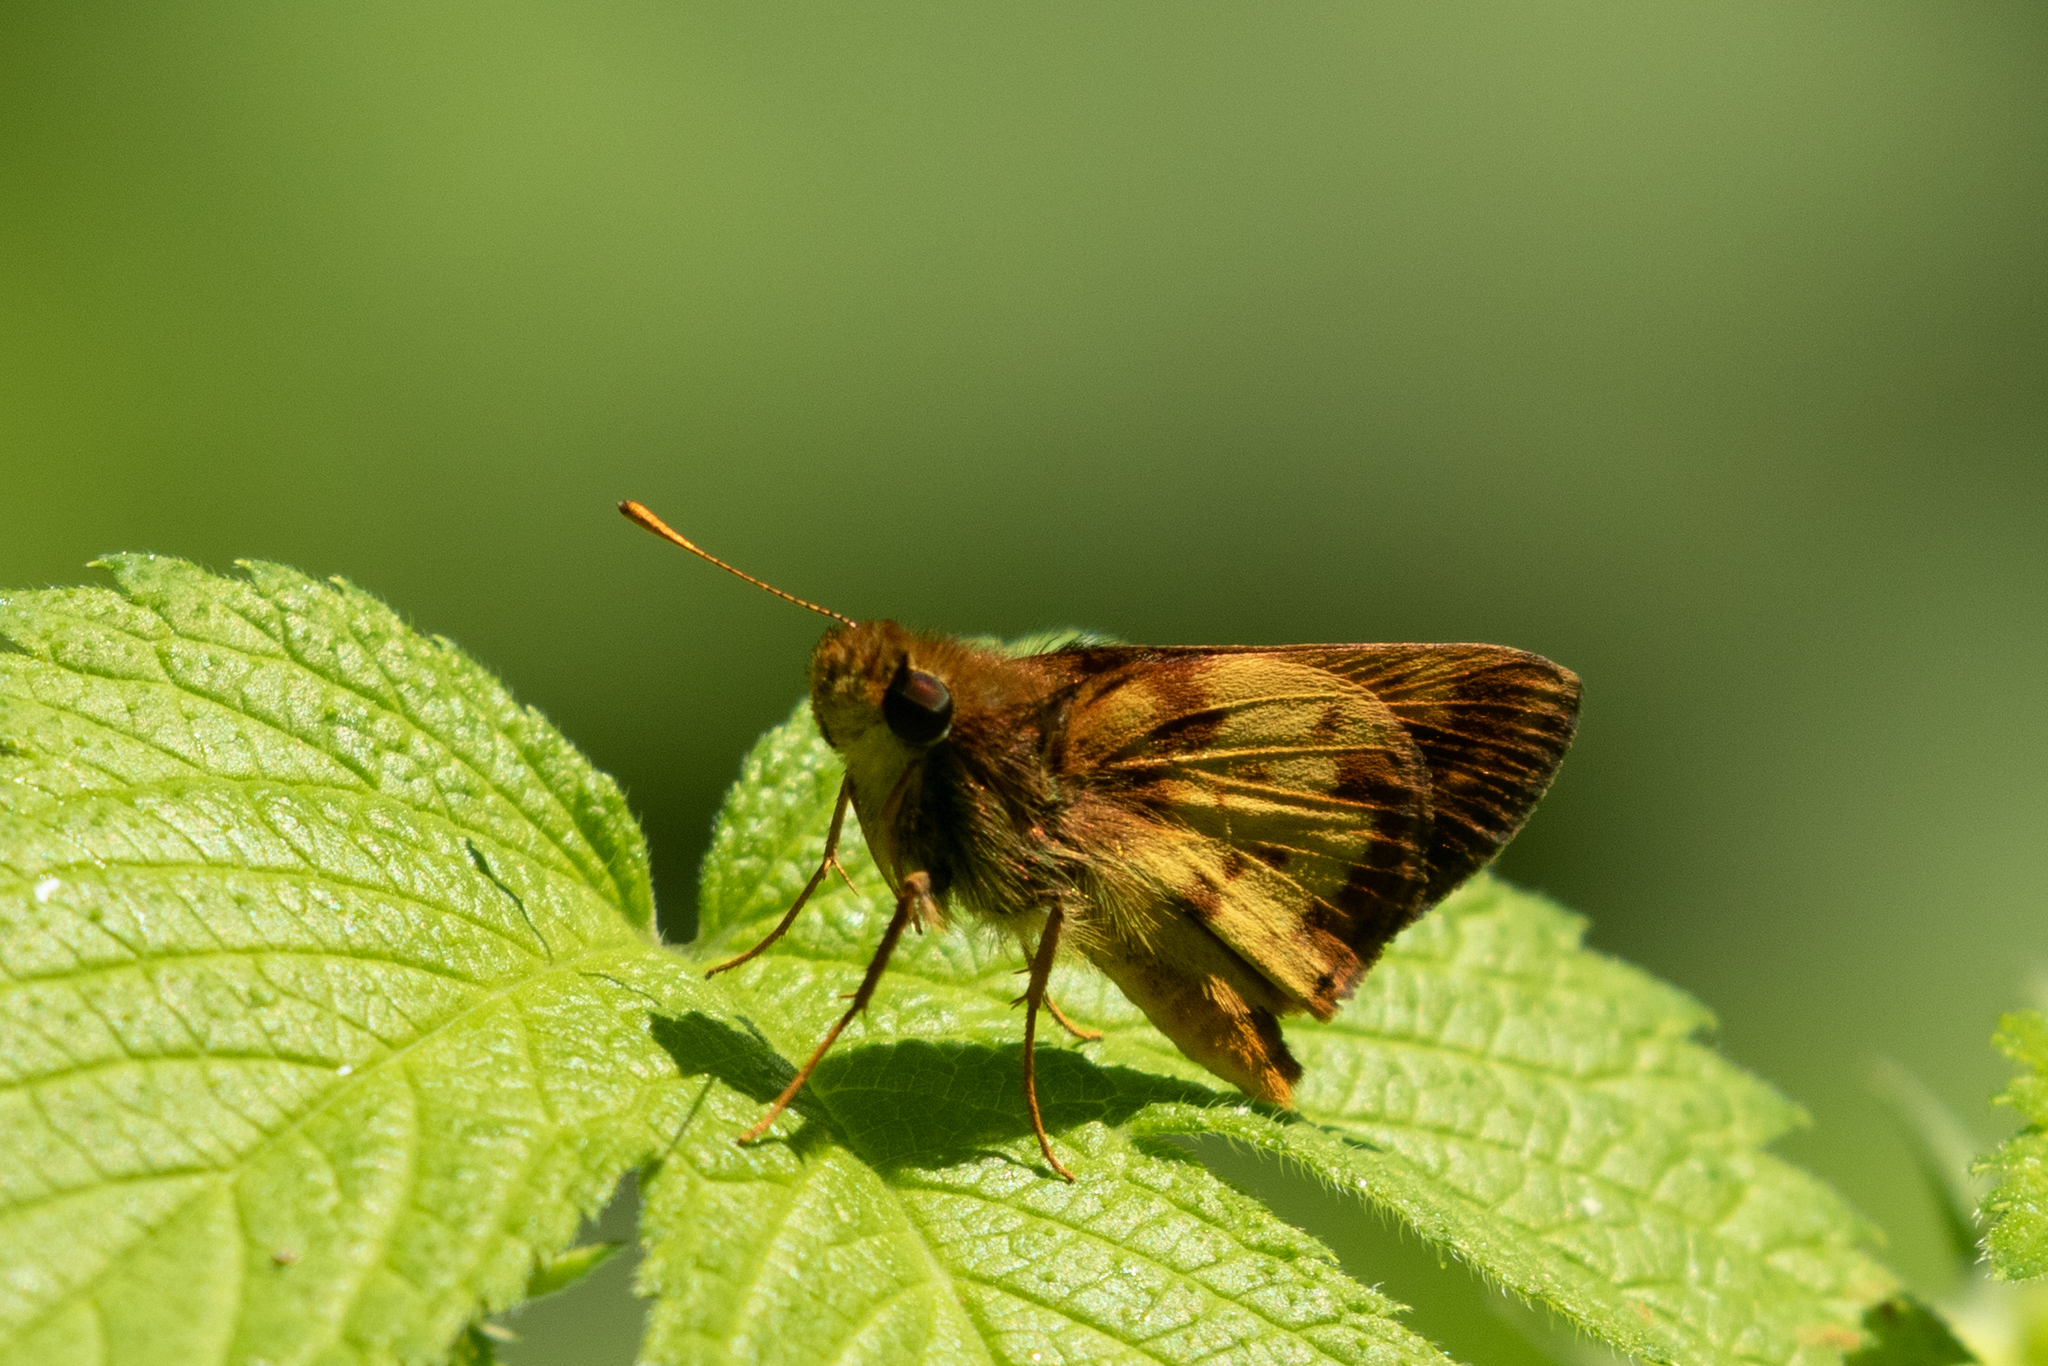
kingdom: Animalia
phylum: Arthropoda
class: Insecta
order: Lepidoptera
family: Hesperiidae
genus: Lon
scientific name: Lon zabulon
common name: Zabulon skipper
